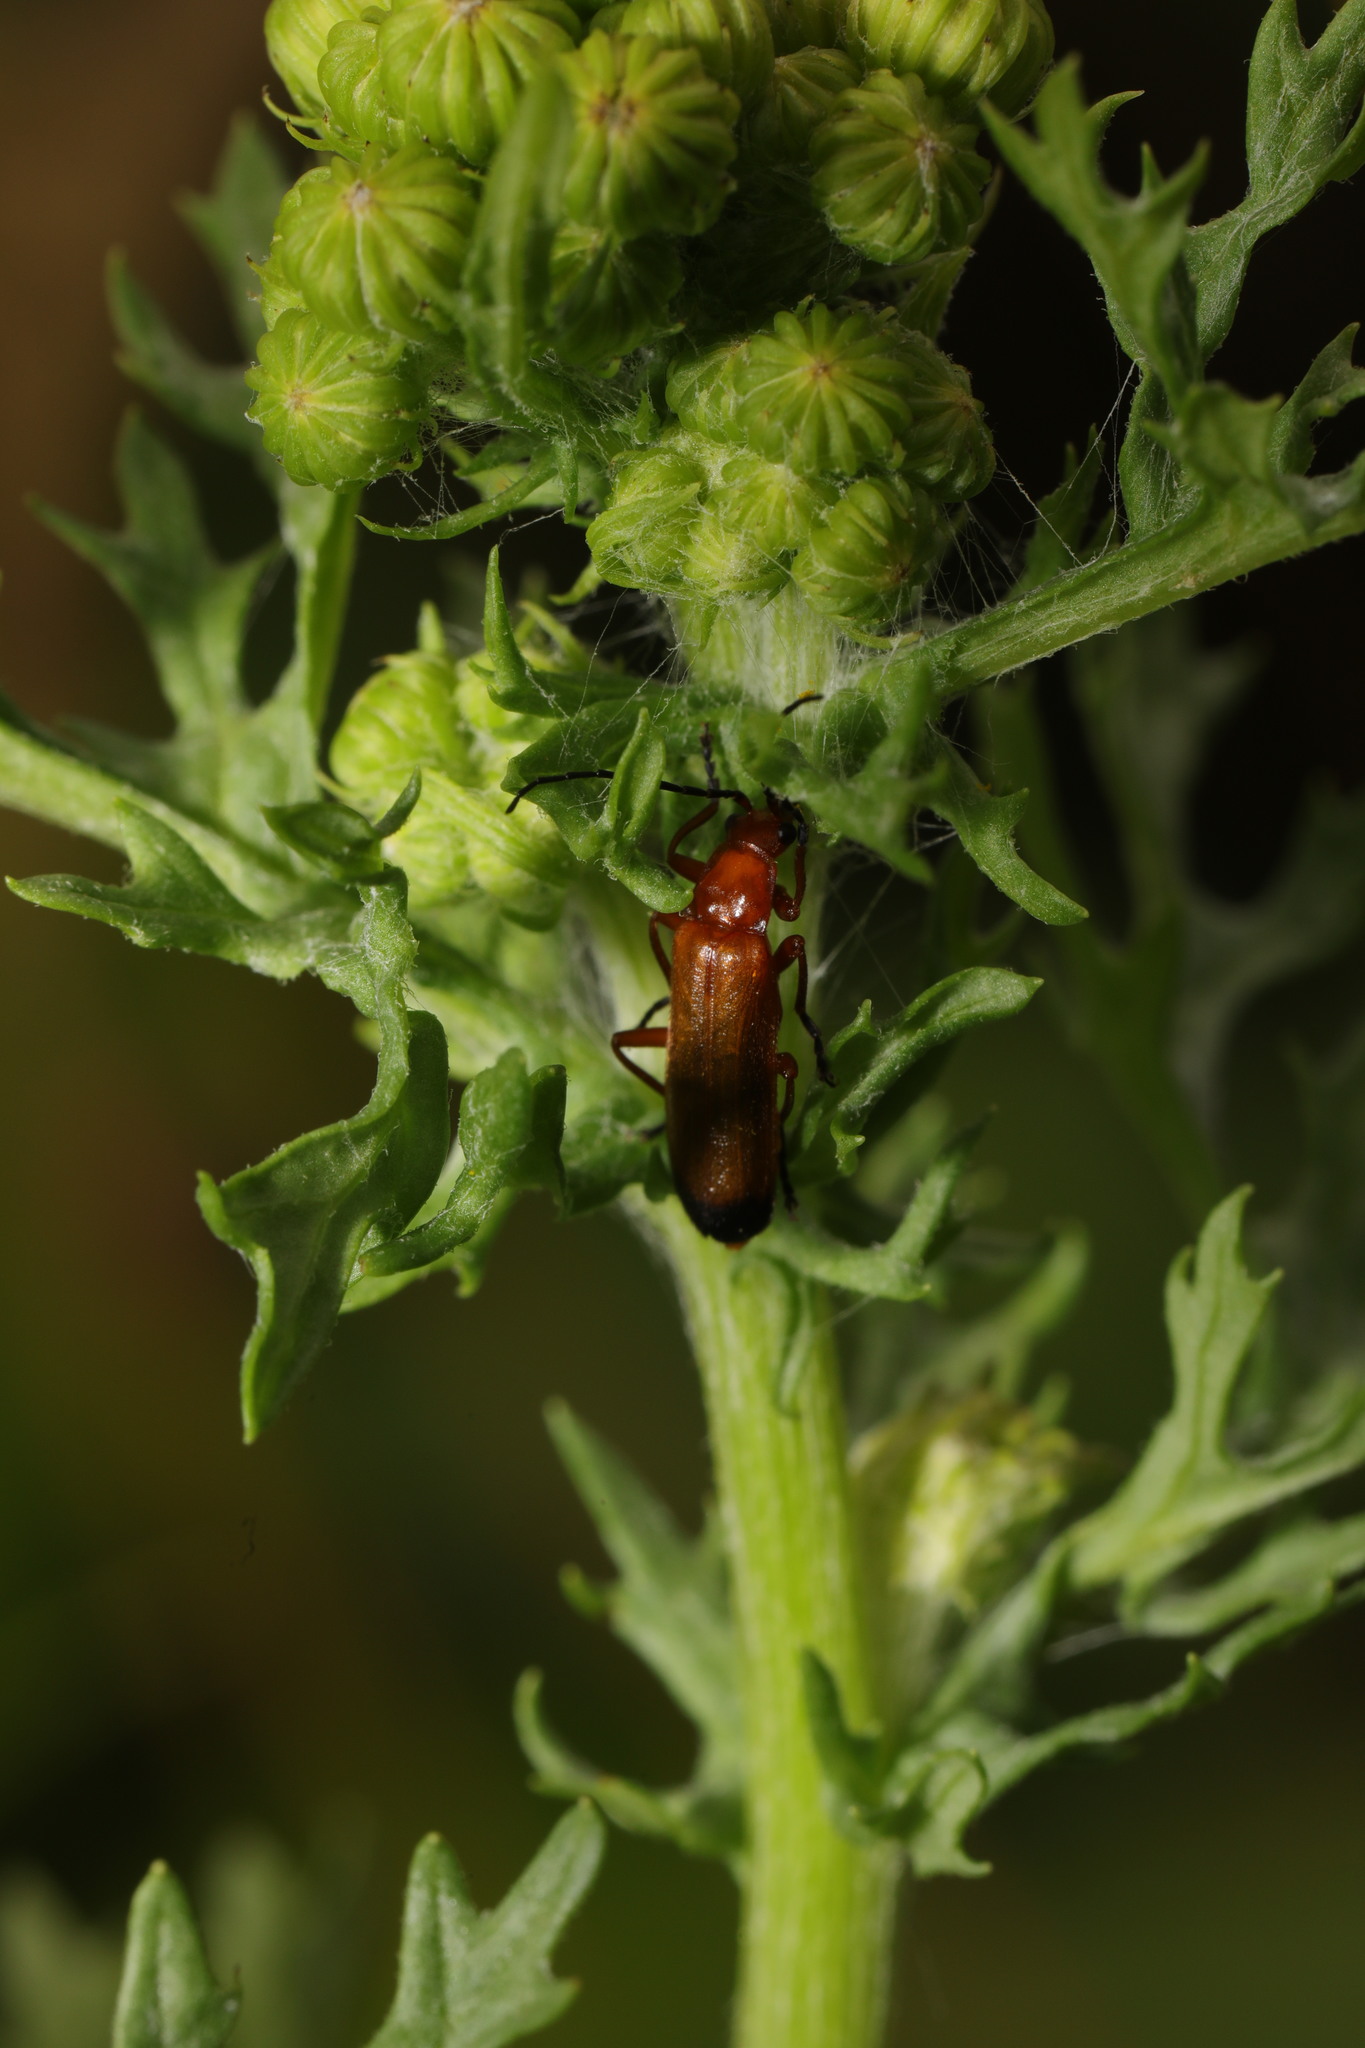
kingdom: Animalia
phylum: Arthropoda
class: Insecta
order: Coleoptera
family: Cantharidae
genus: Rhagonycha
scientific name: Rhagonycha fulva
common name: Common red soldier beetle
